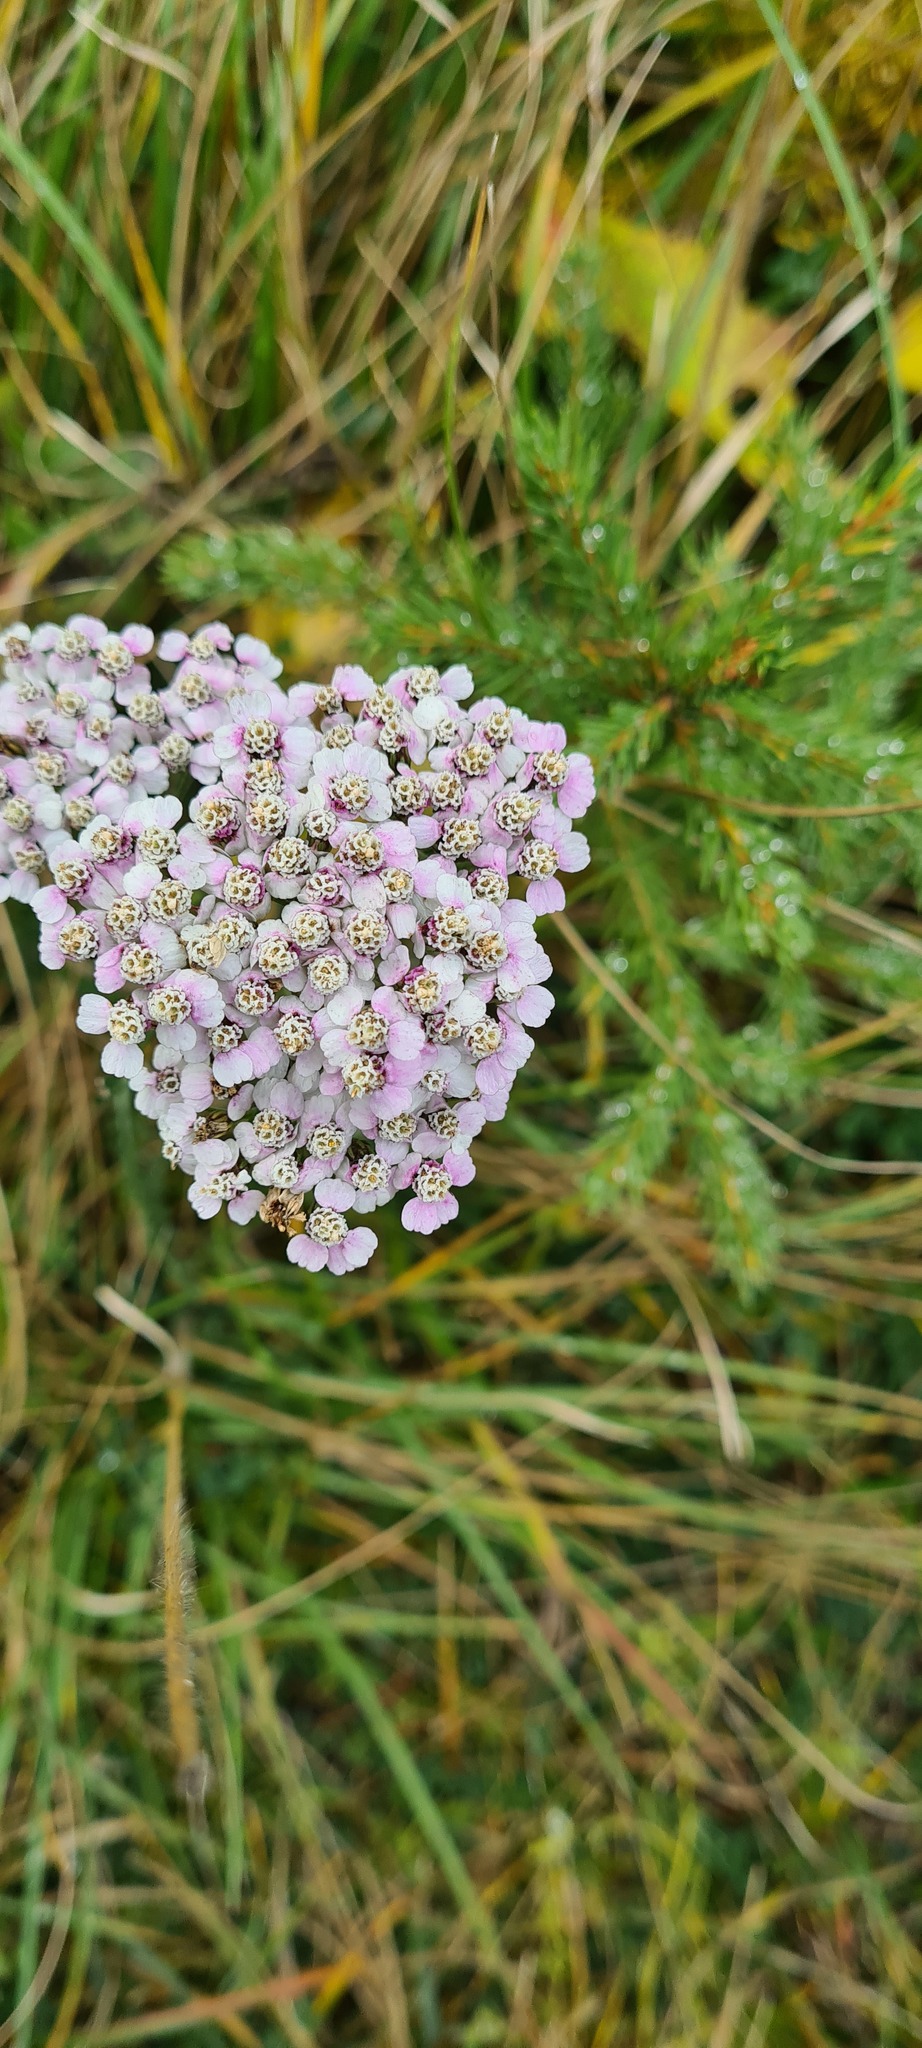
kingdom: Plantae
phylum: Tracheophyta
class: Magnoliopsida
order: Asterales
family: Asteraceae
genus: Achillea
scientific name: Achillea millefolium
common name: Yarrow
